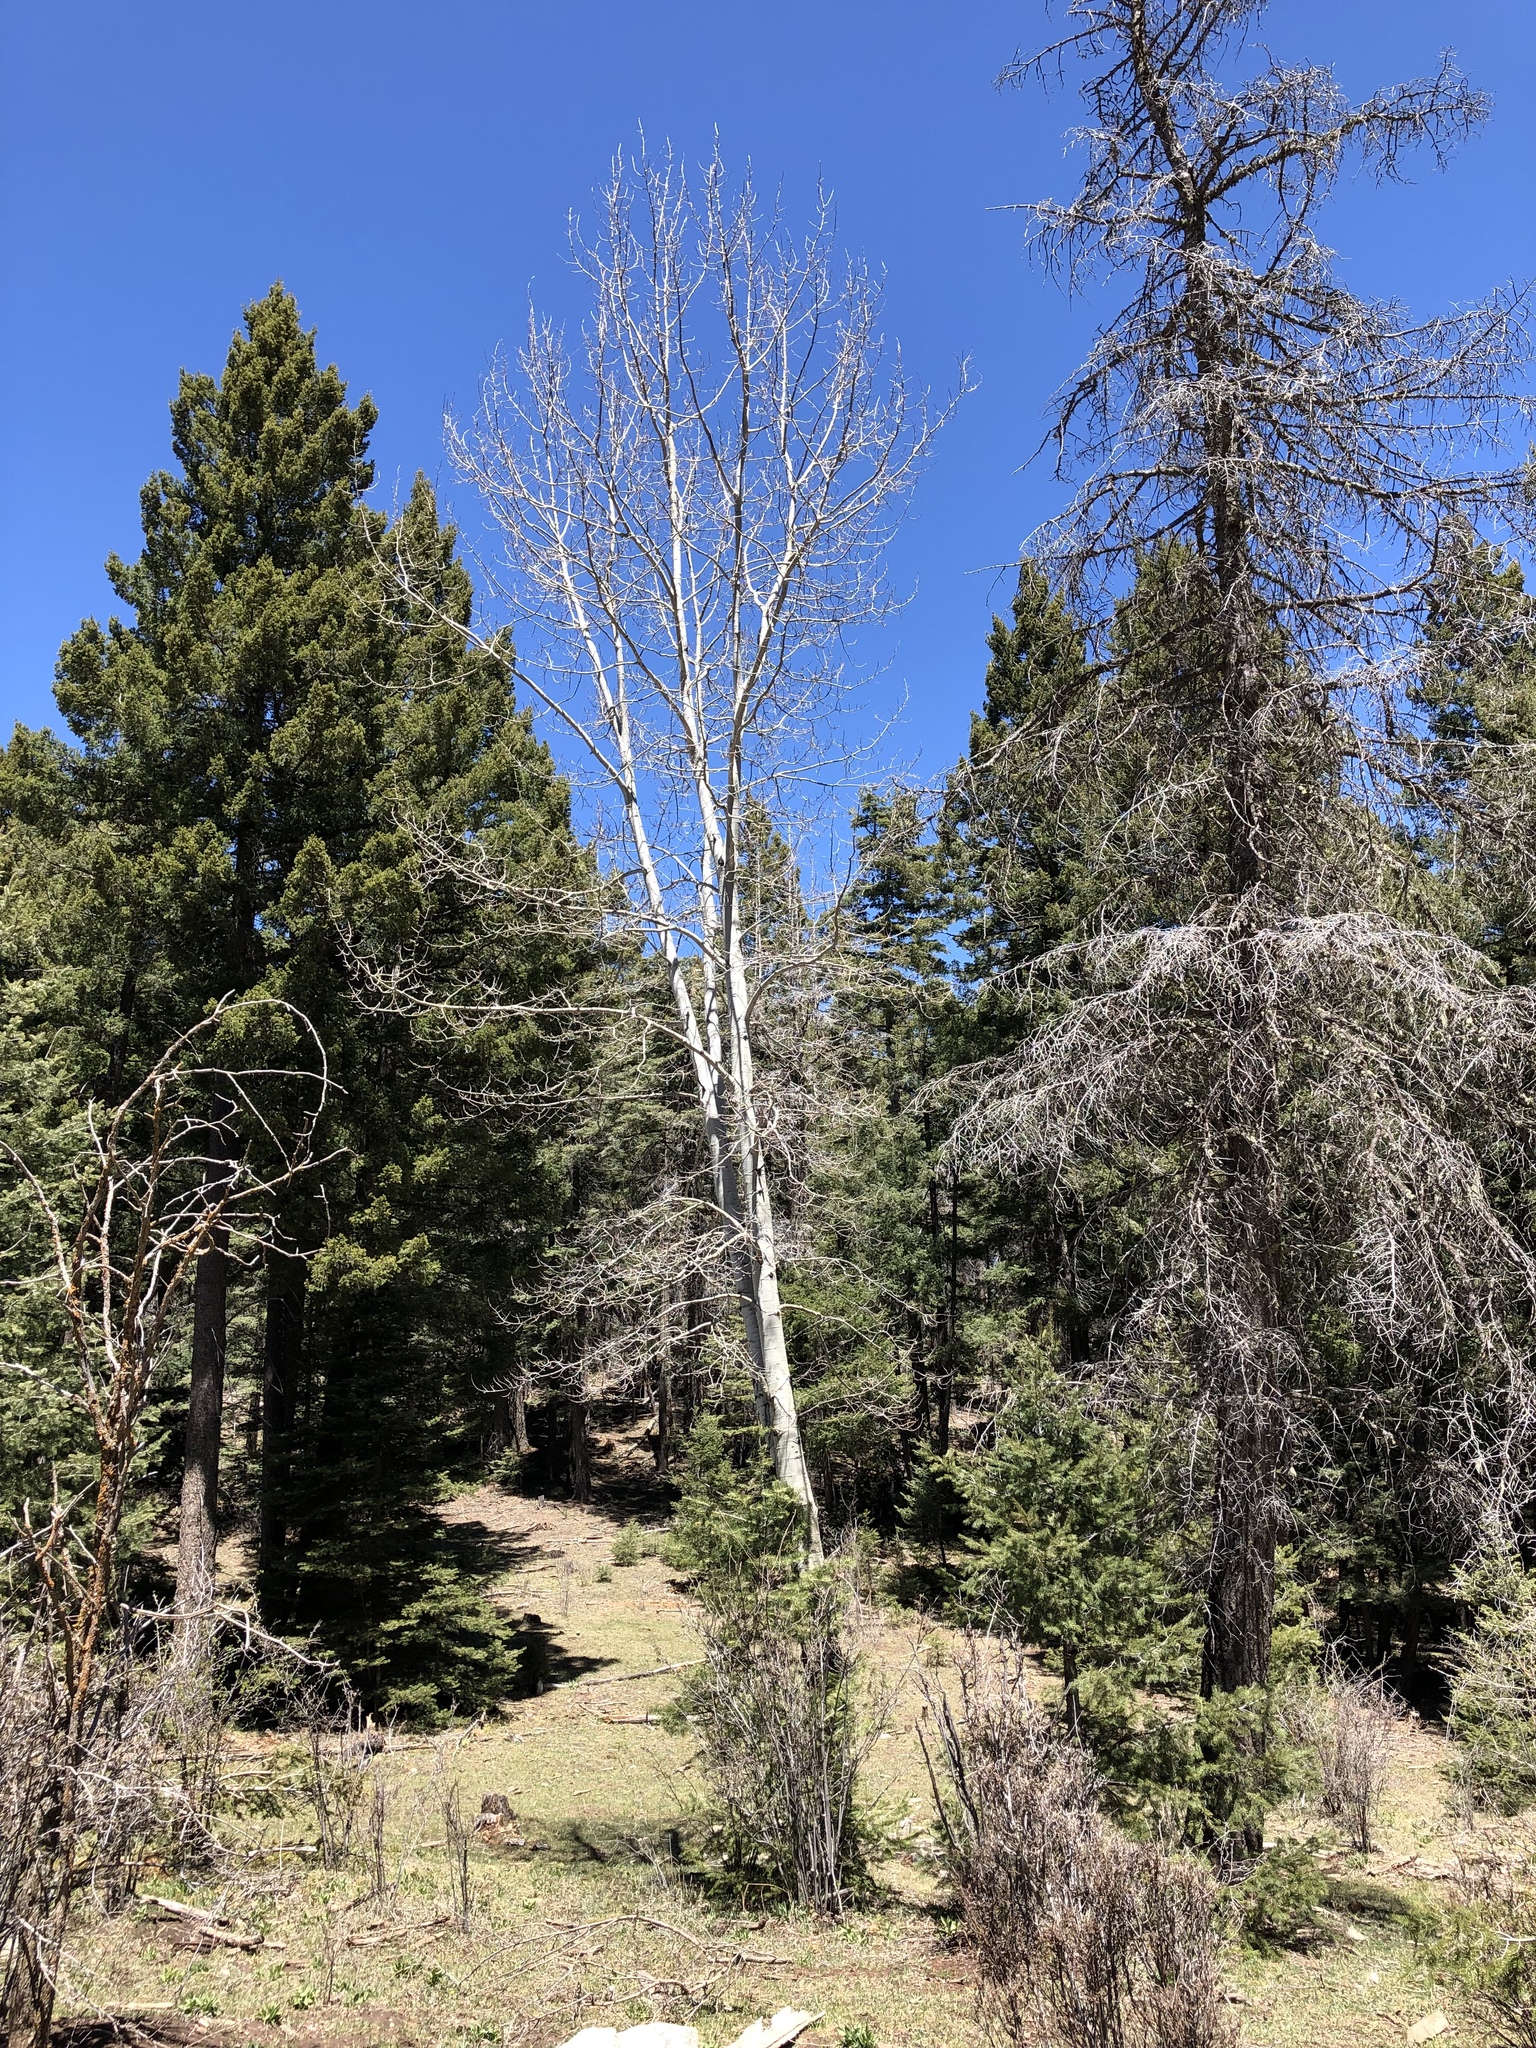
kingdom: Plantae
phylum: Tracheophyta
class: Magnoliopsida
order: Malpighiales
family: Salicaceae
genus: Populus
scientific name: Populus tremuloides
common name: Quaking aspen
